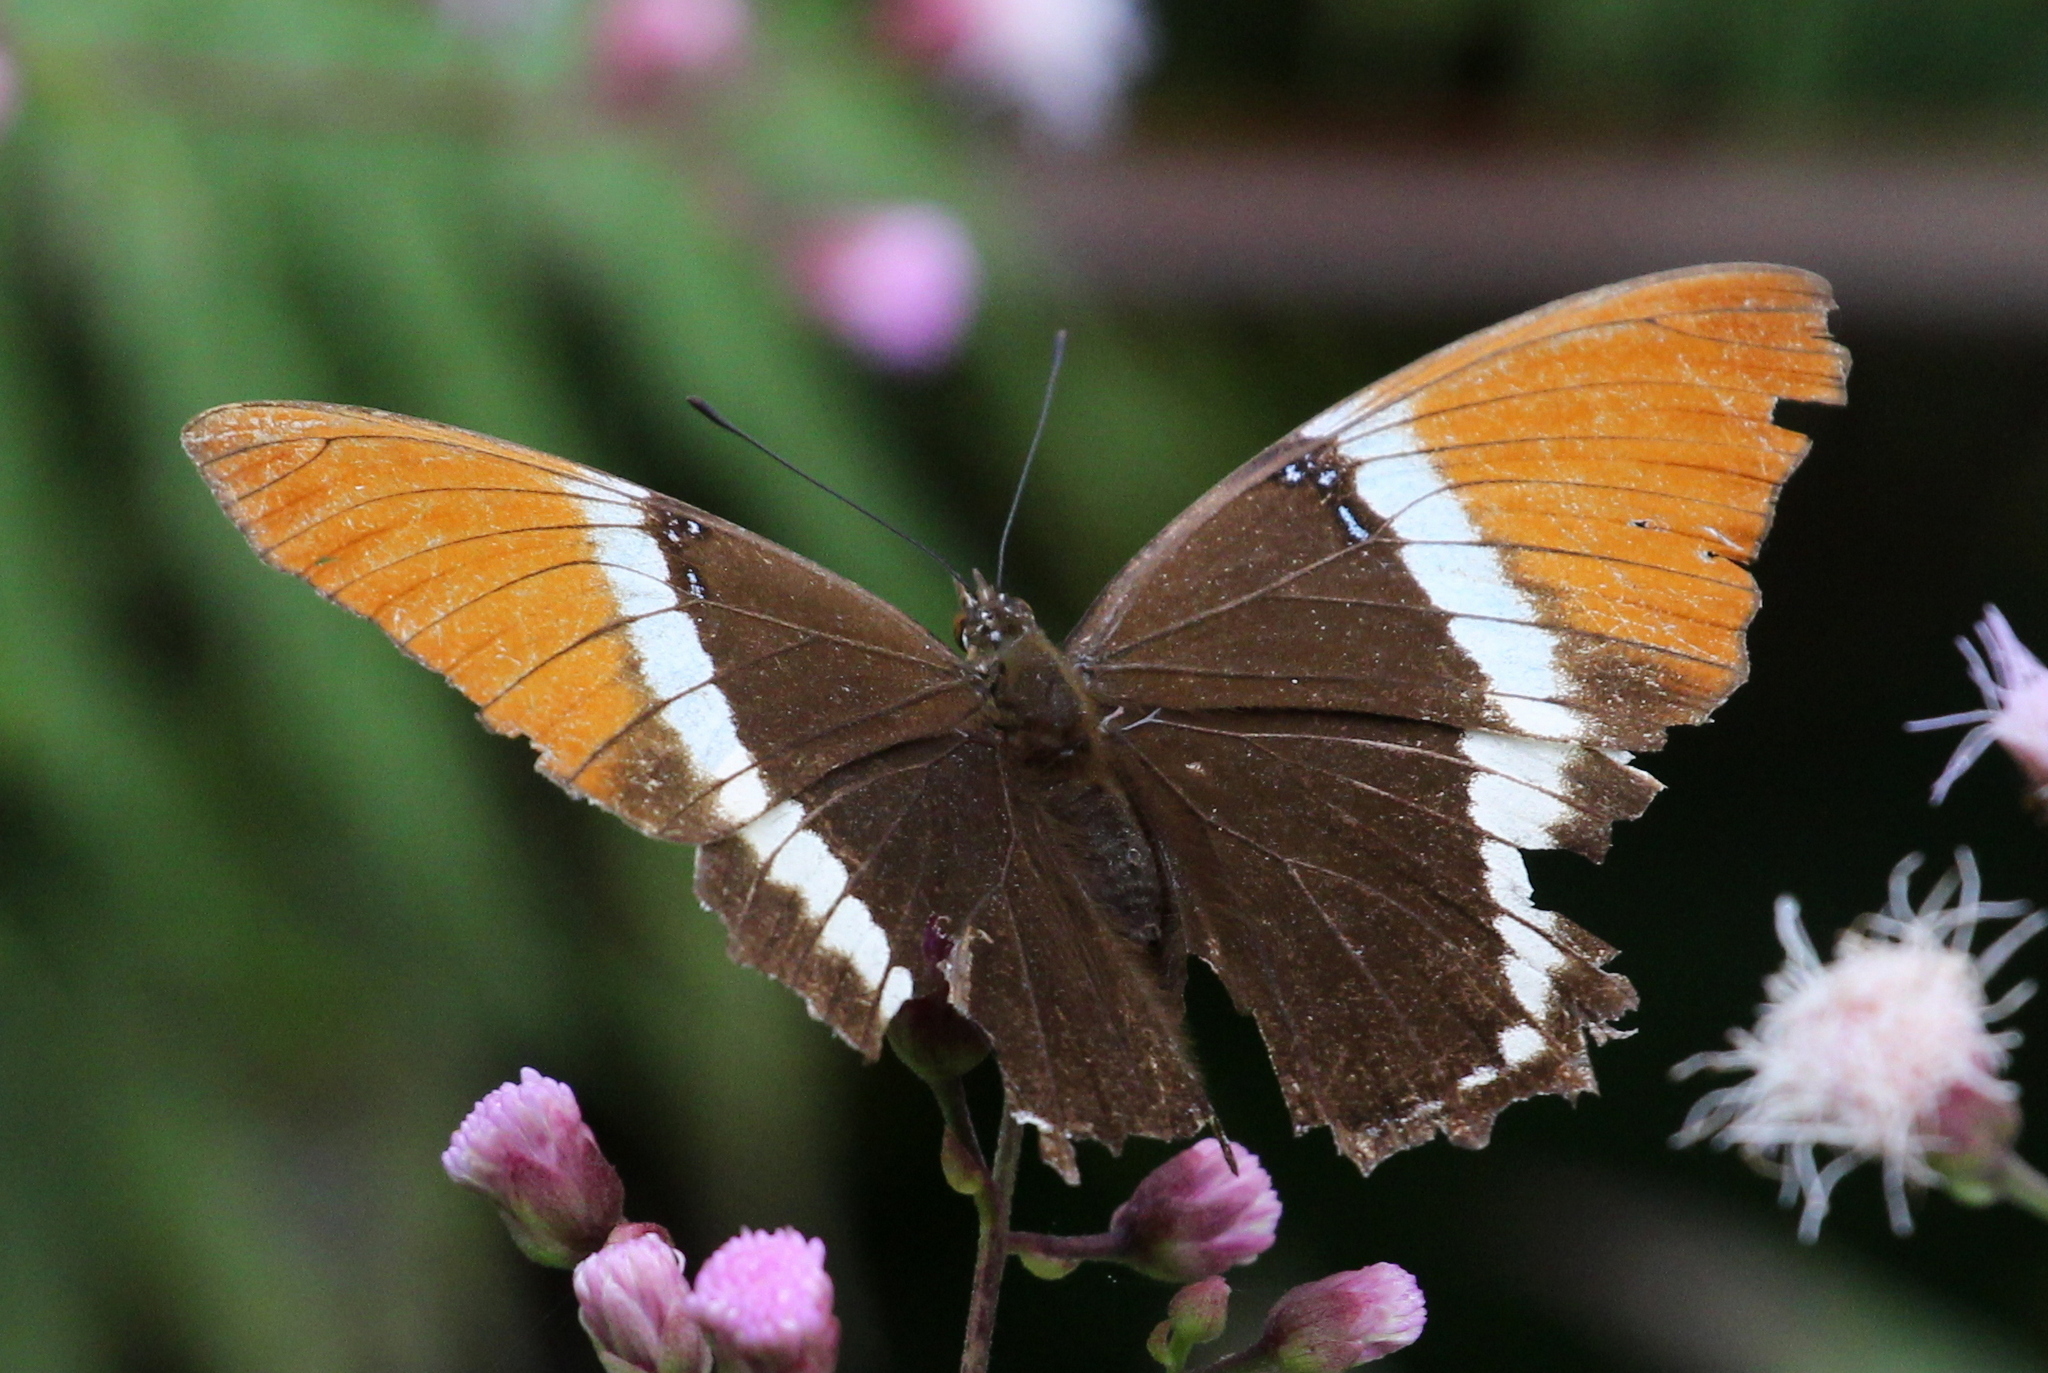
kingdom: Animalia
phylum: Arthropoda
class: Insecta
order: Lepidoptera
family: Nymphalidae
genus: Siproeta
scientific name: Siproeta epaphus
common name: Rusty-tipped page
